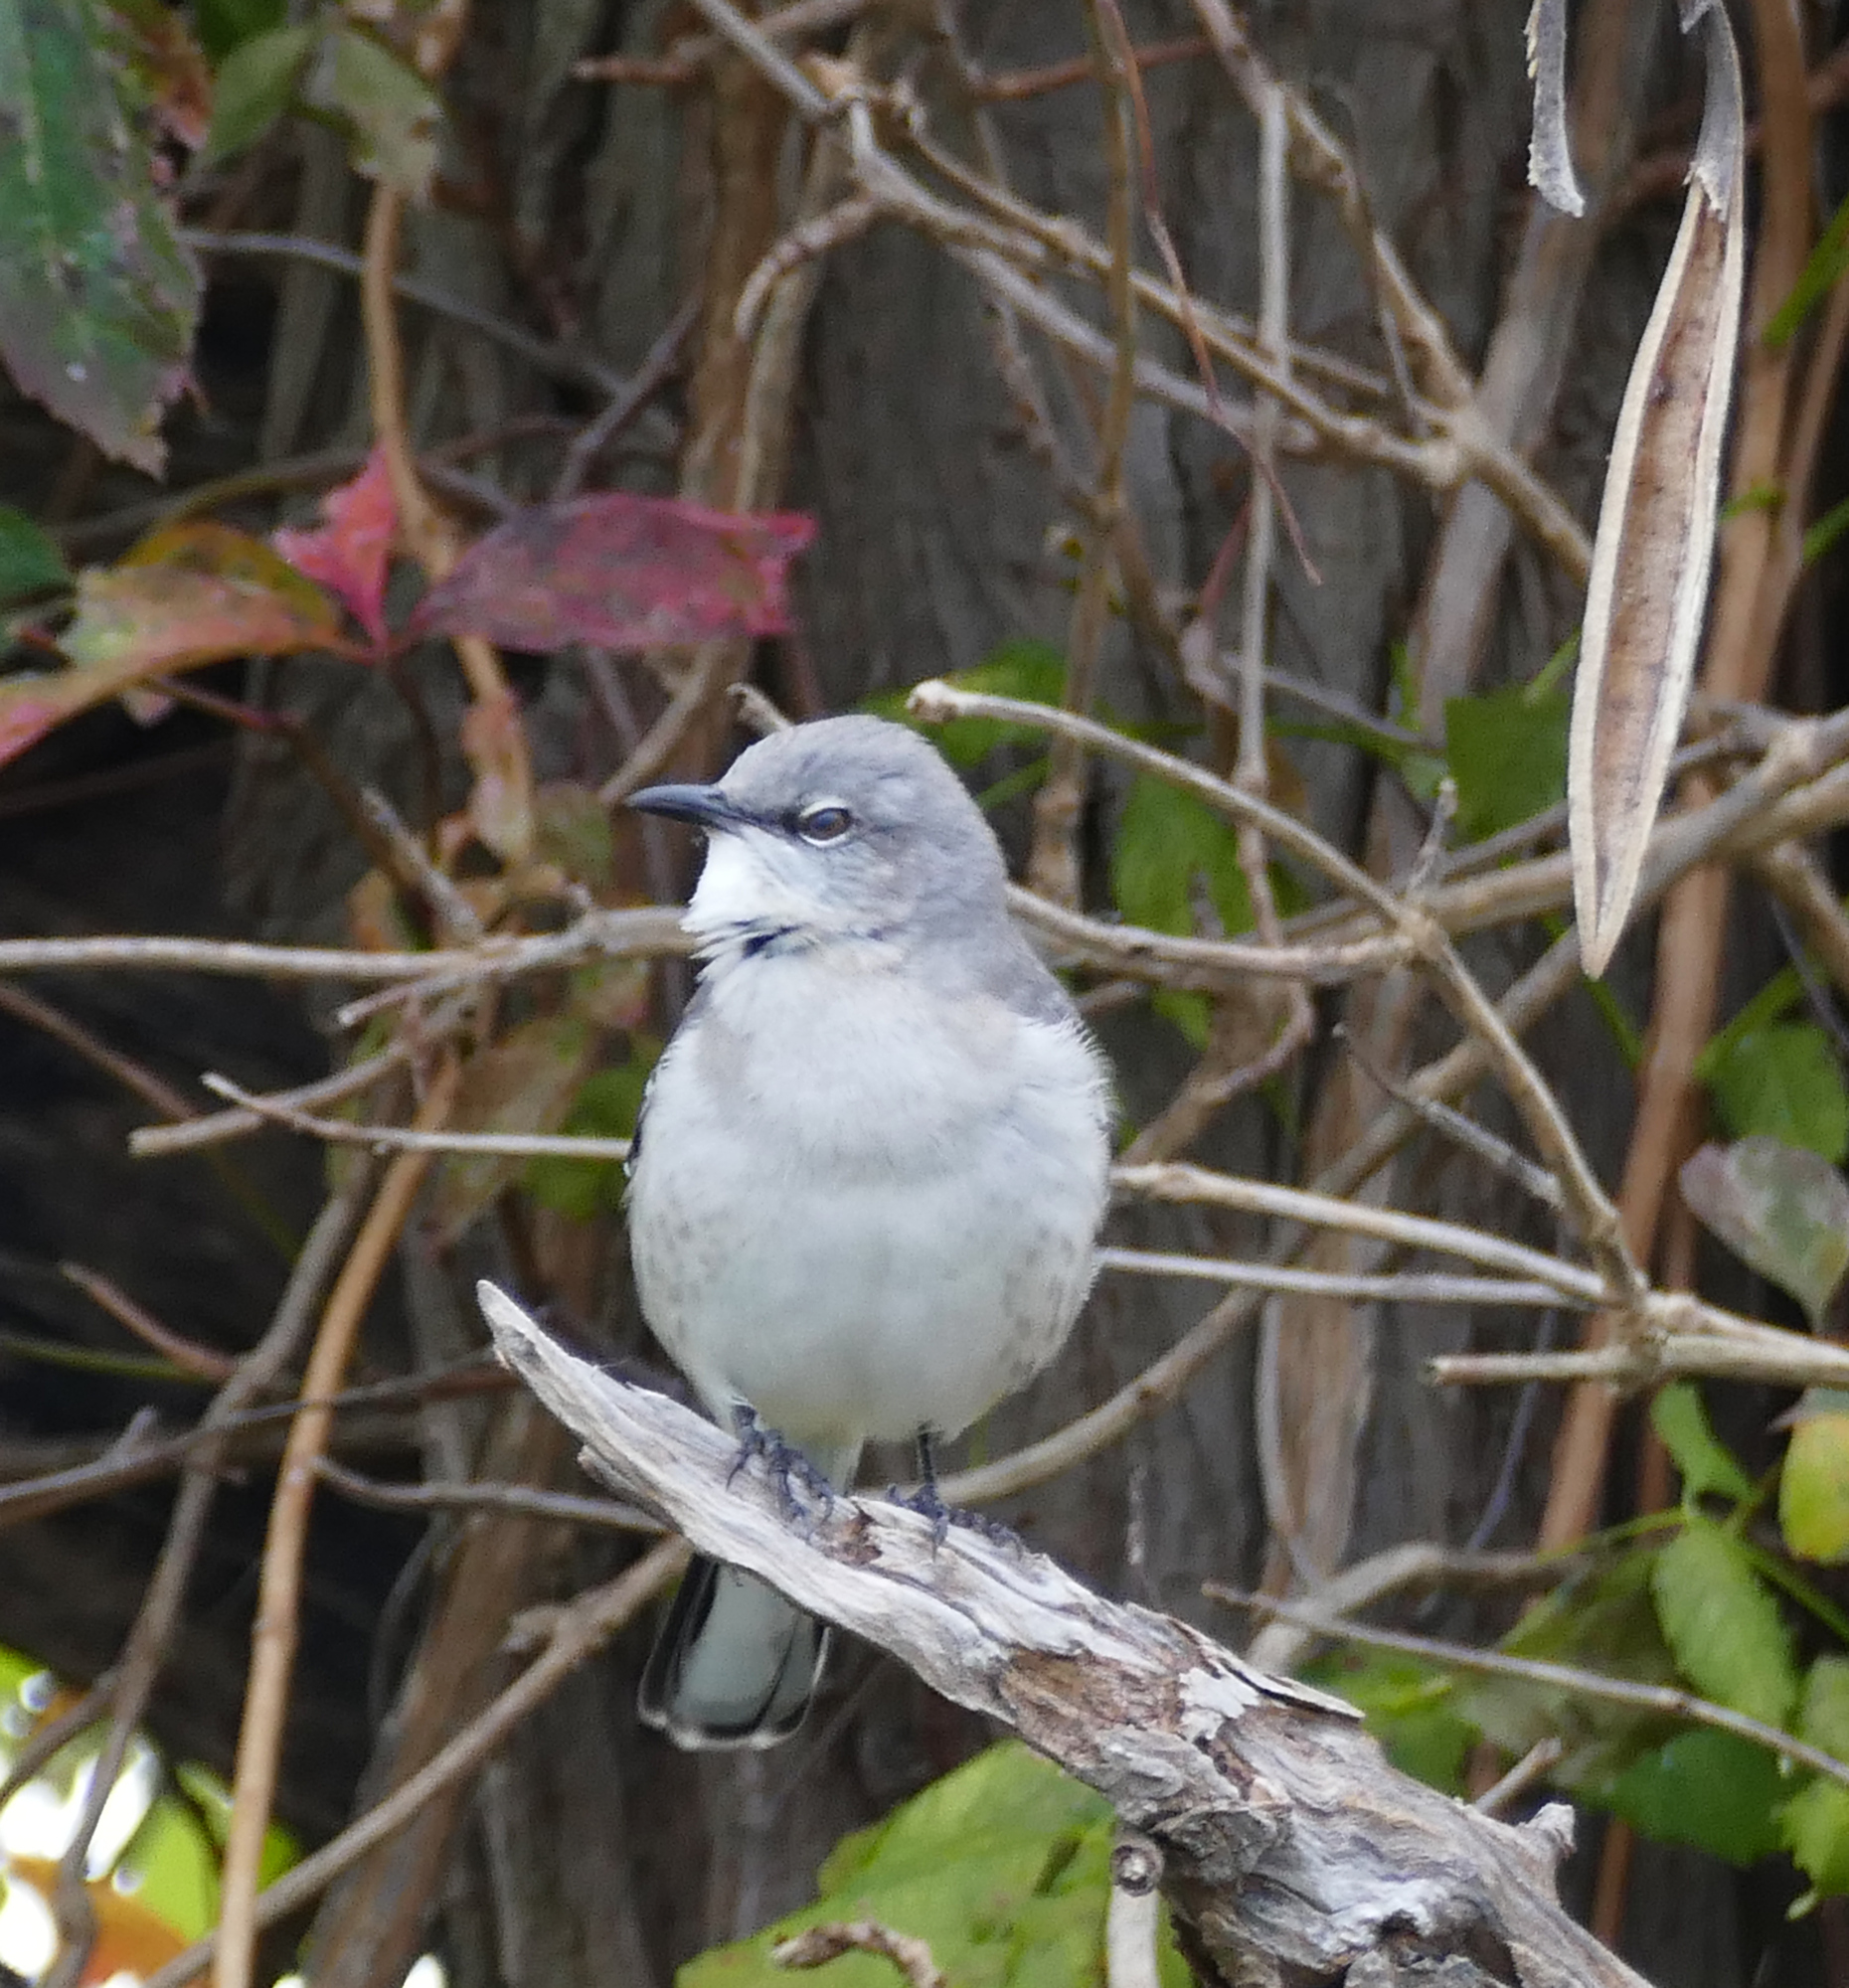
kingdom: Animalia
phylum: Chordata
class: Aves
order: Passeriformes
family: Mimidae
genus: Mimus
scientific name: Mimus polyglottos
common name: Northern mockingbird
